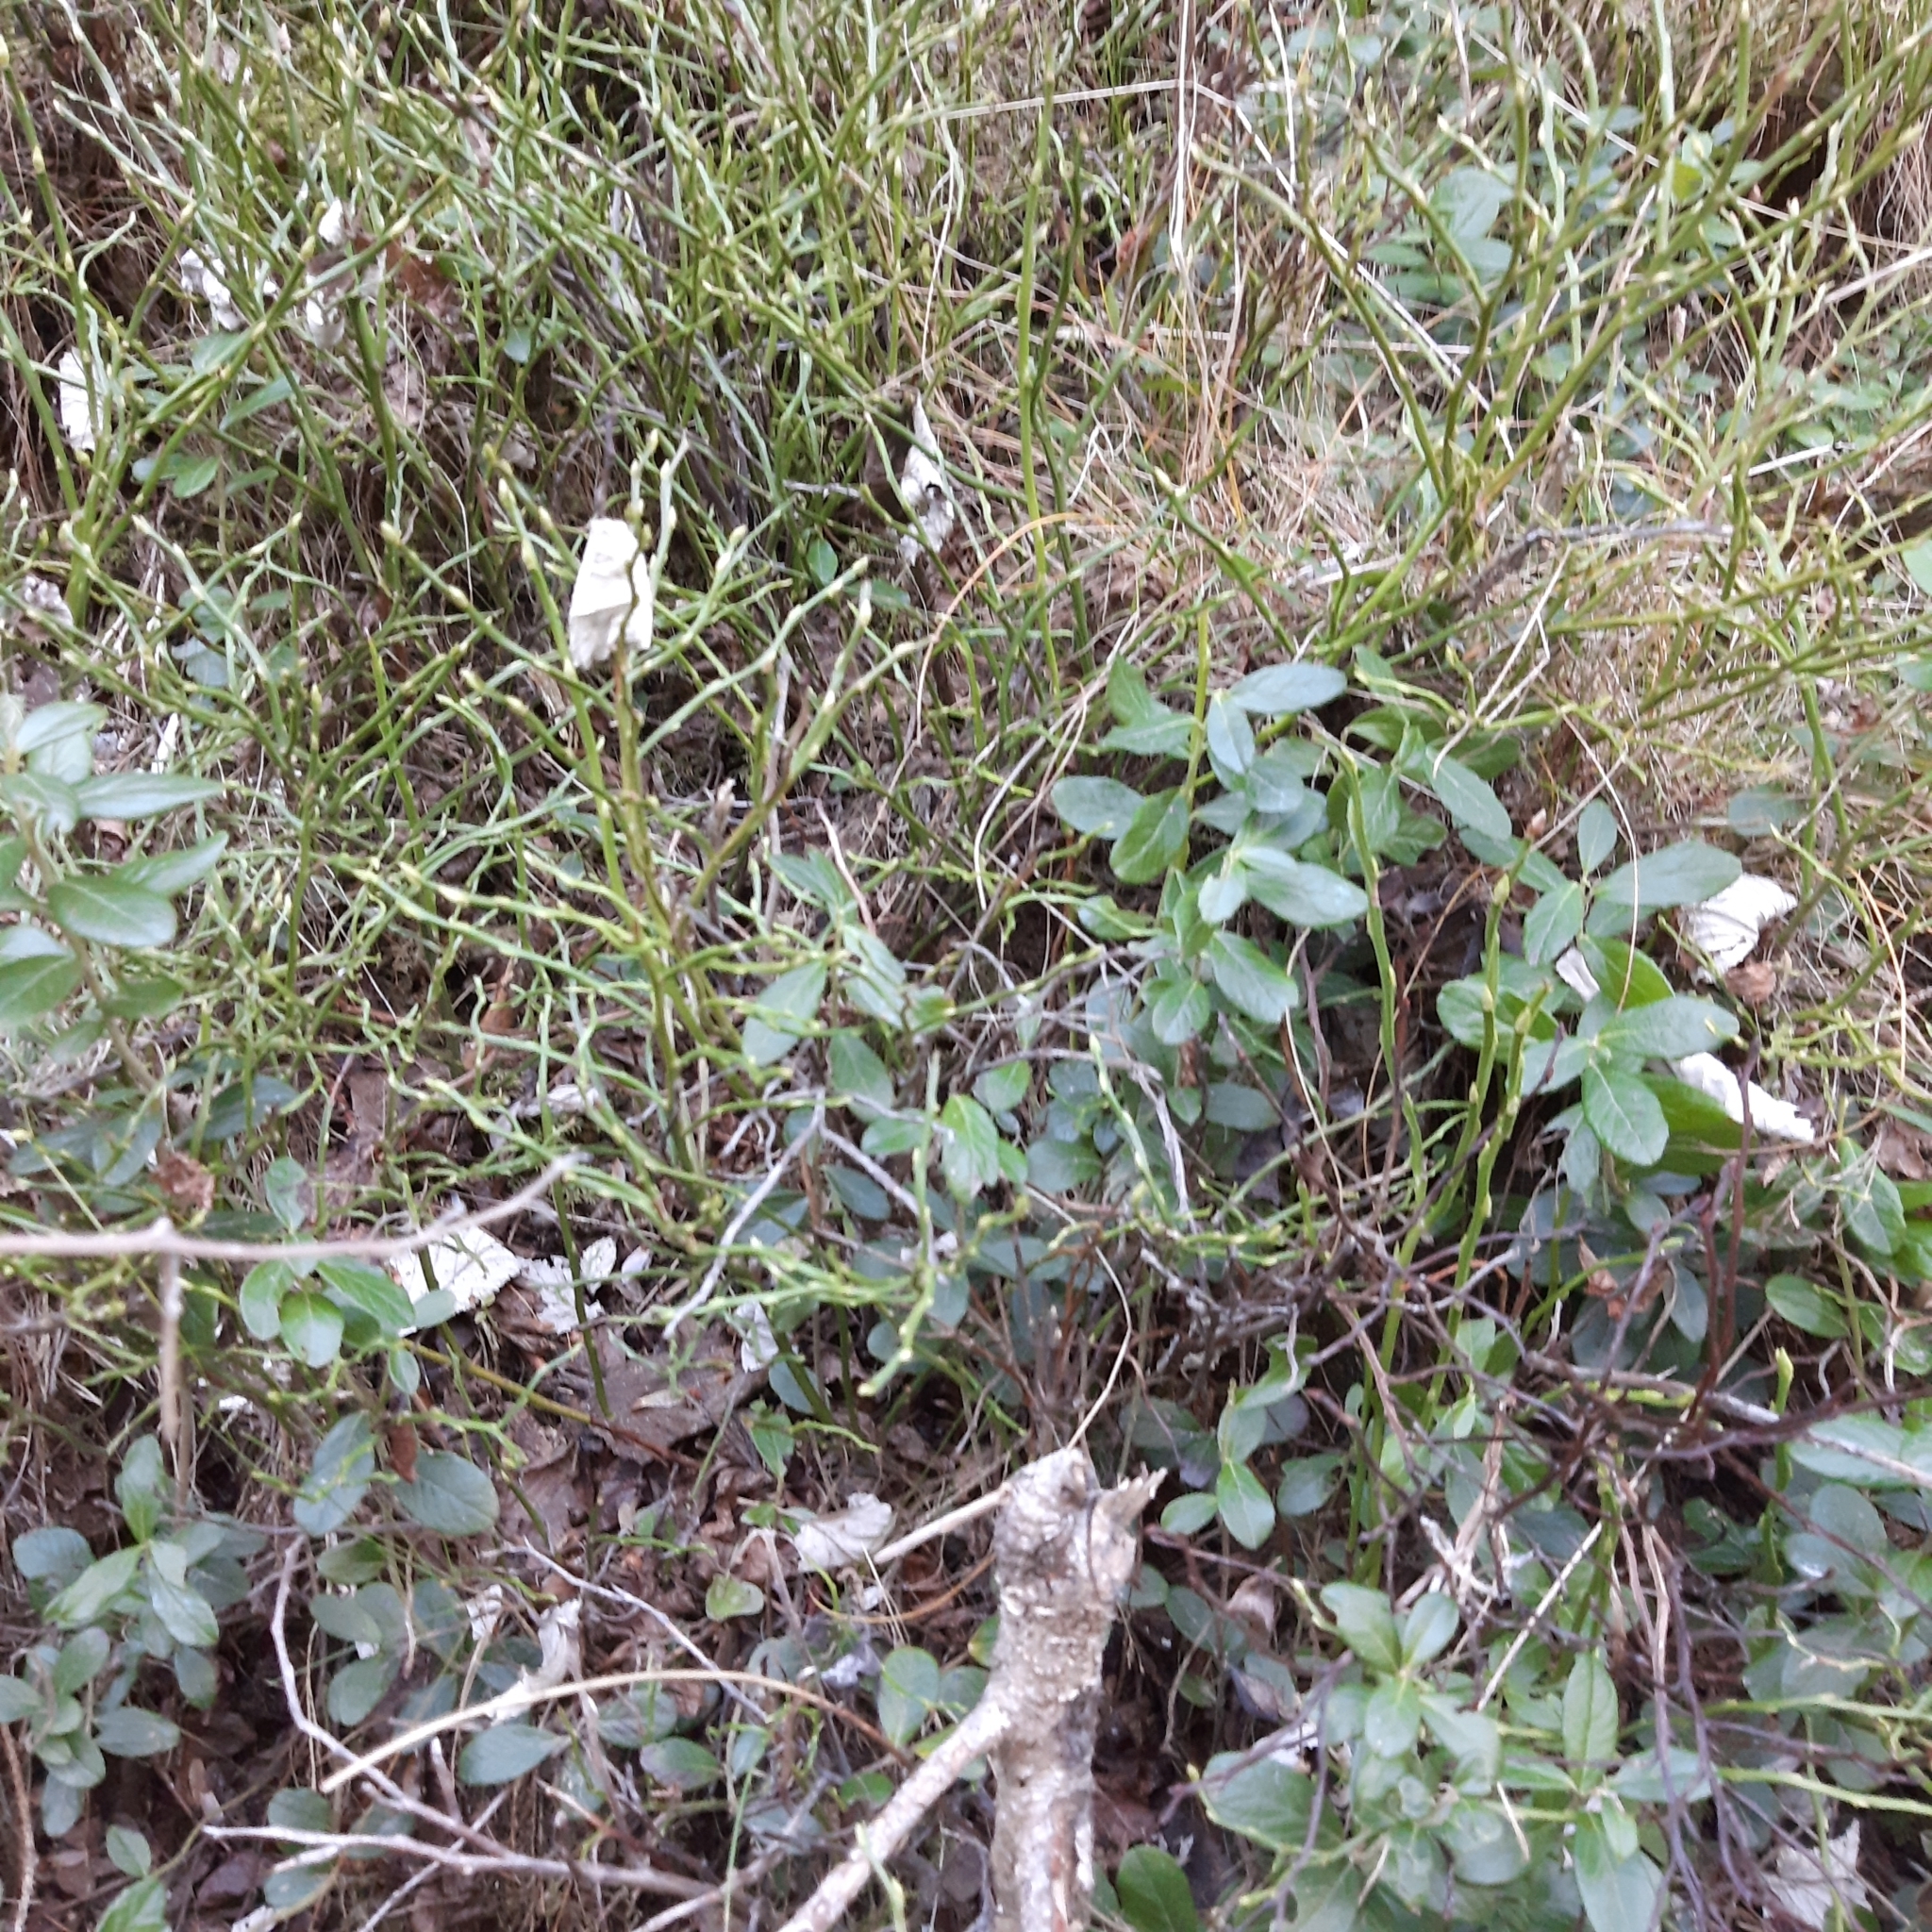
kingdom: Plantae
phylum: Tracheophyta
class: Magnoliopsida
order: Ericales
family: Ericaceae
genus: Vaccinium
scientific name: Vaccinium vitis-idaea
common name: Cowberry
